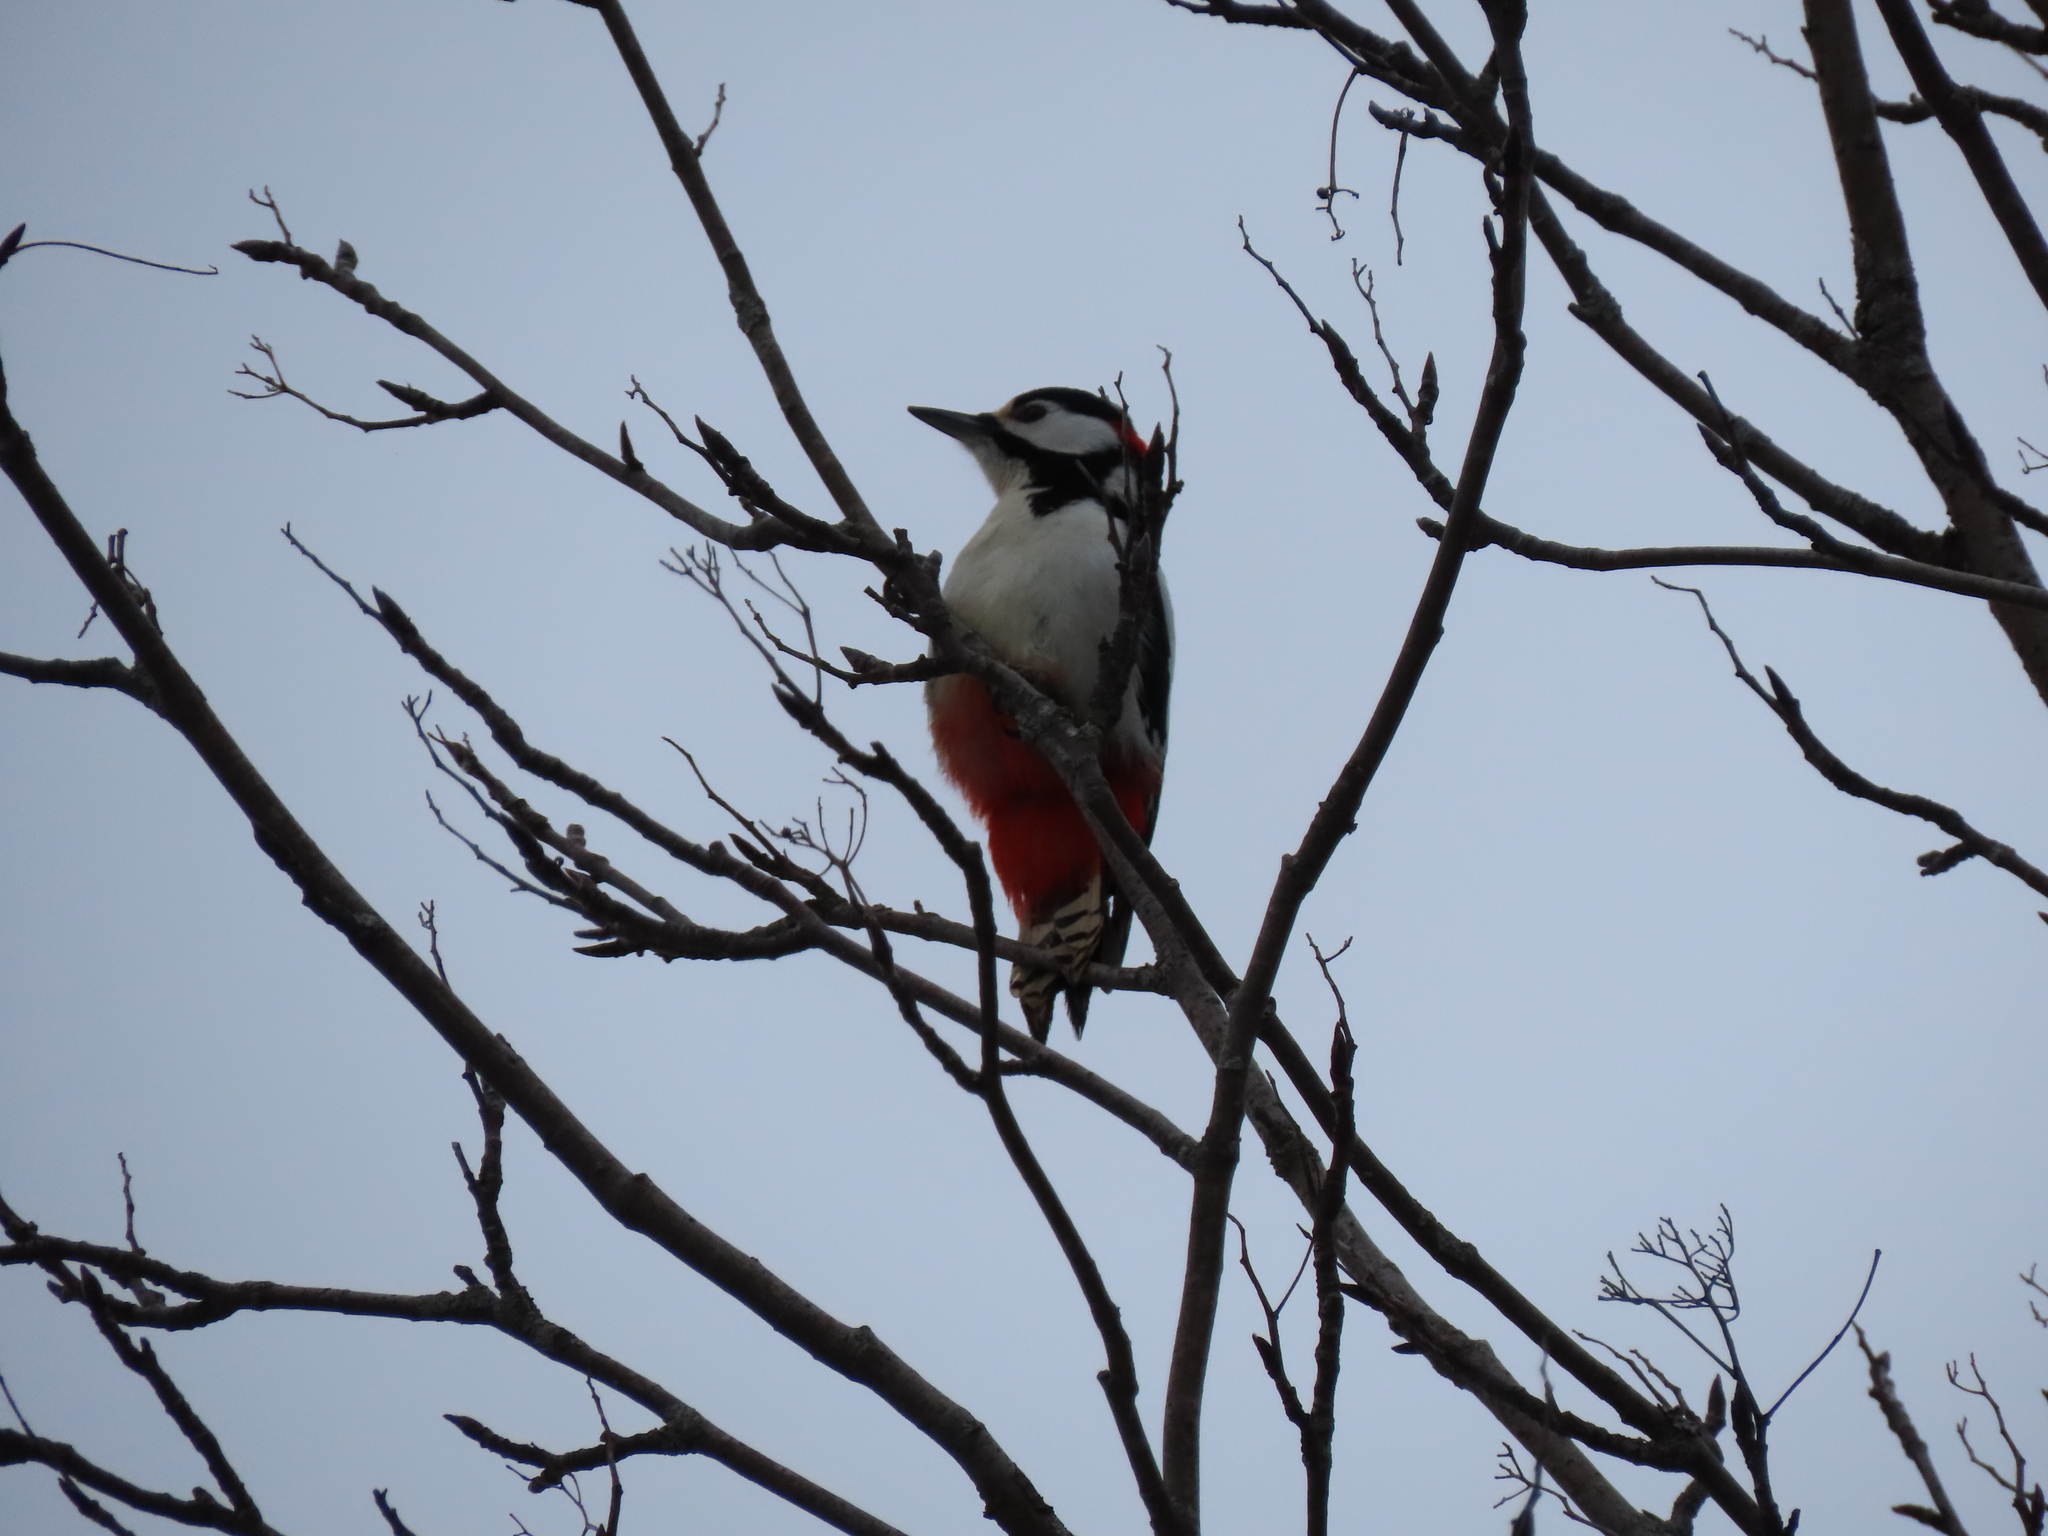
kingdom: Animalia
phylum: Chordata
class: Aves
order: Piciformes
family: Picidae
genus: Dendrocopos
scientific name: Dendrocopos major
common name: Great spotted woodpecker
